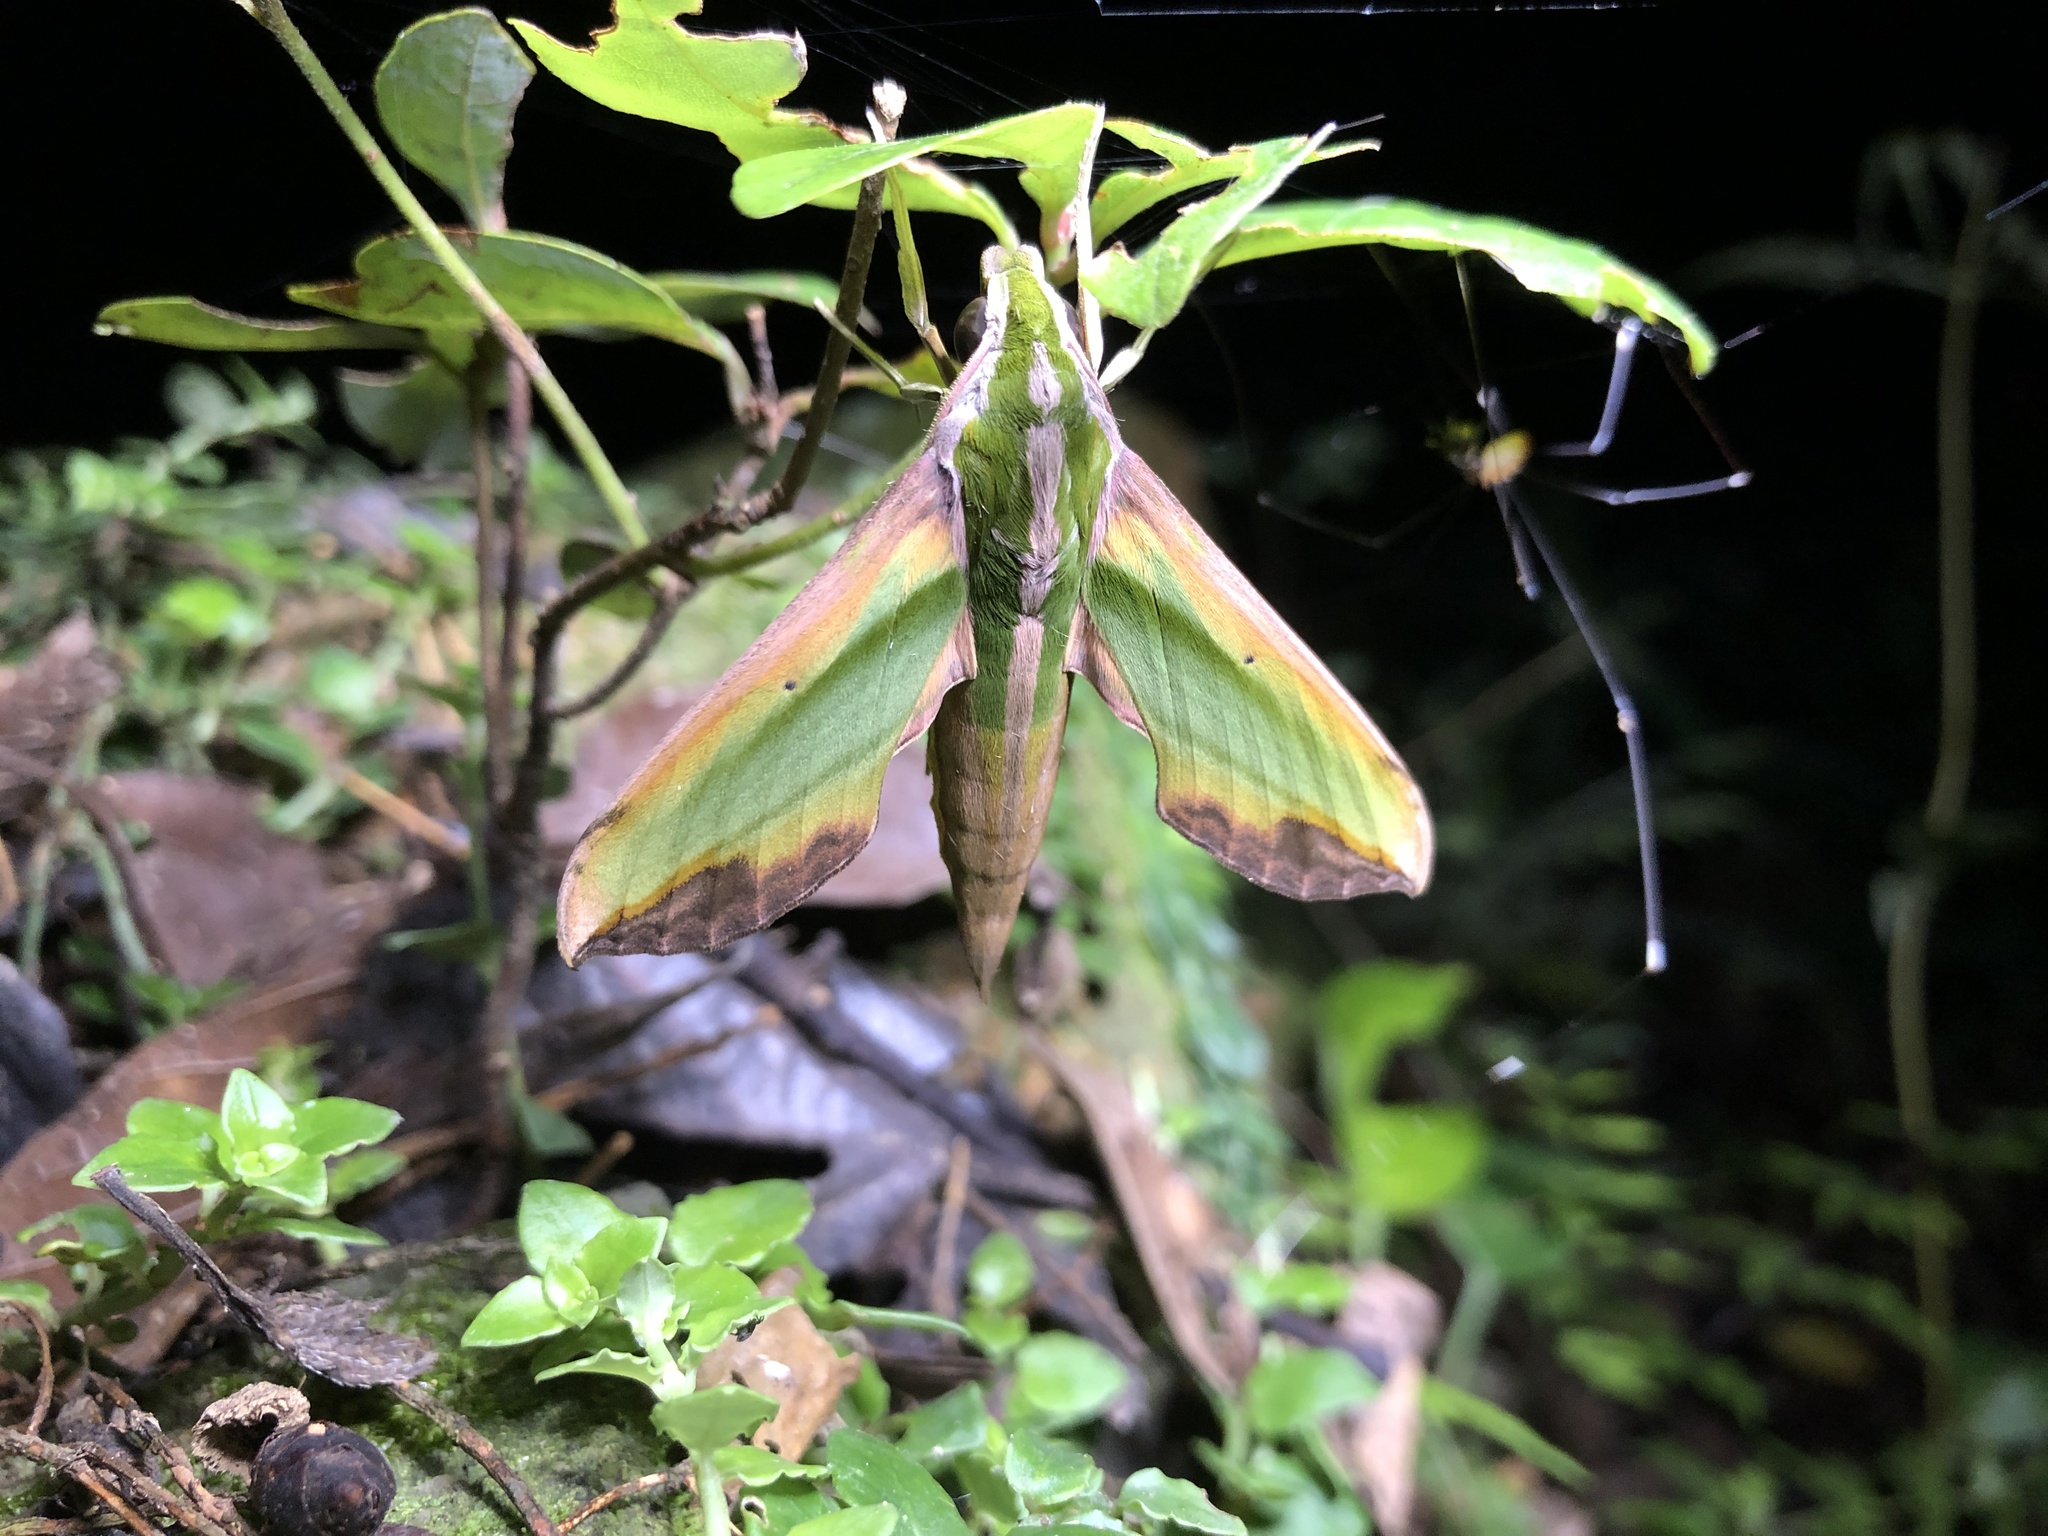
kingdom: Animalia
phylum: Arthropoda
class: Insecta
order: Lepidoptera
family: Sphingidae
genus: Pergesa
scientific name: Pergesa acteus
